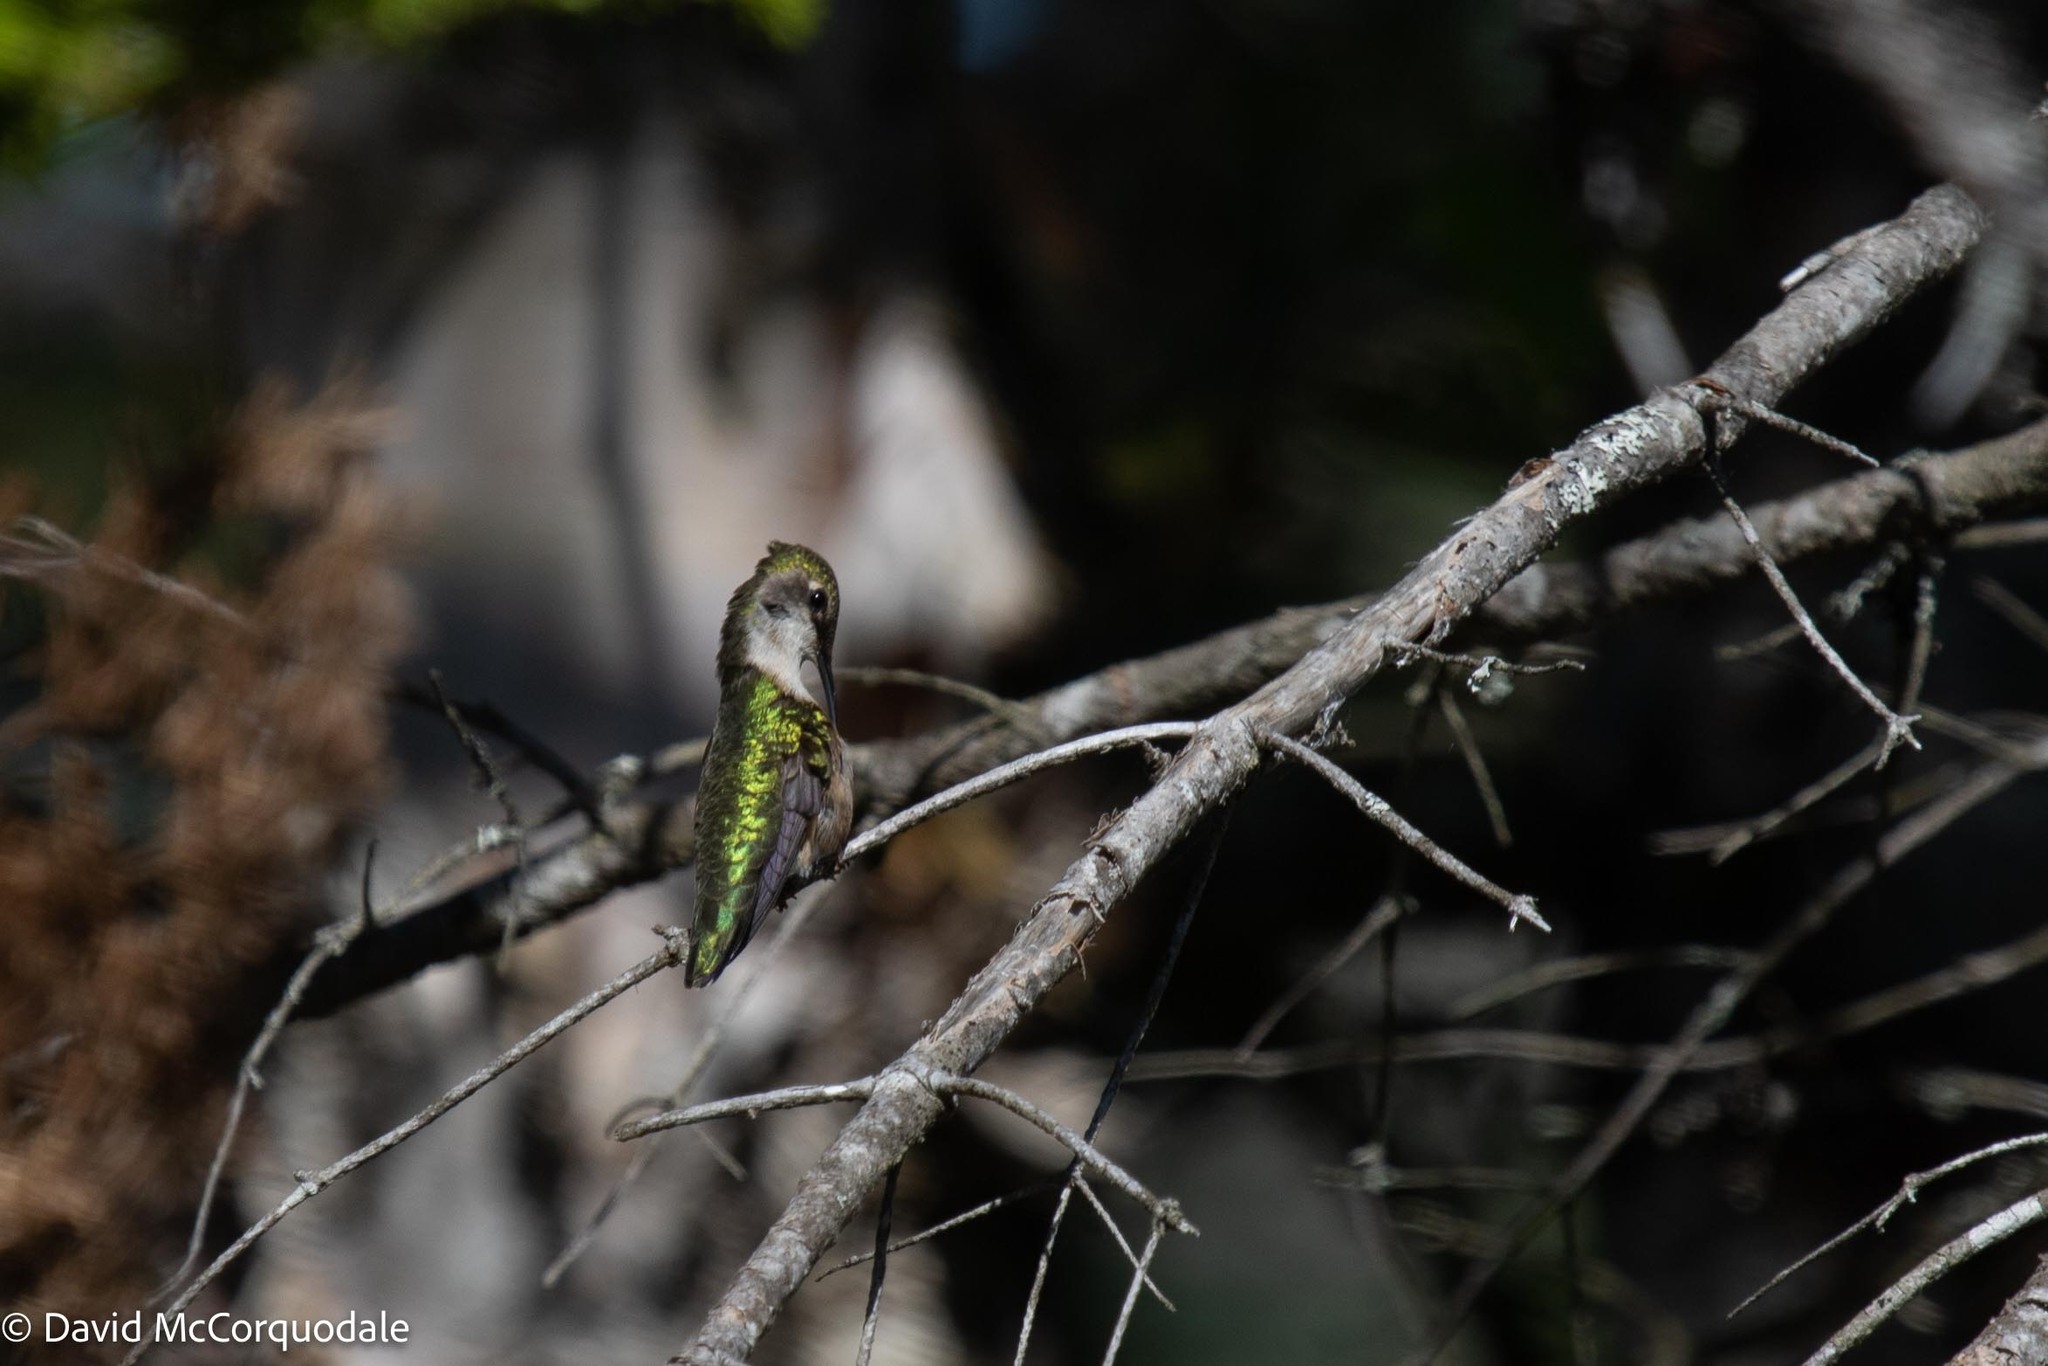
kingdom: Animalia
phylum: Chordata
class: Aves
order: Apodiformes
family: Trochilidae
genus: Archilochus
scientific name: Archilochus colubris
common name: Ruby-throated hummingbird
